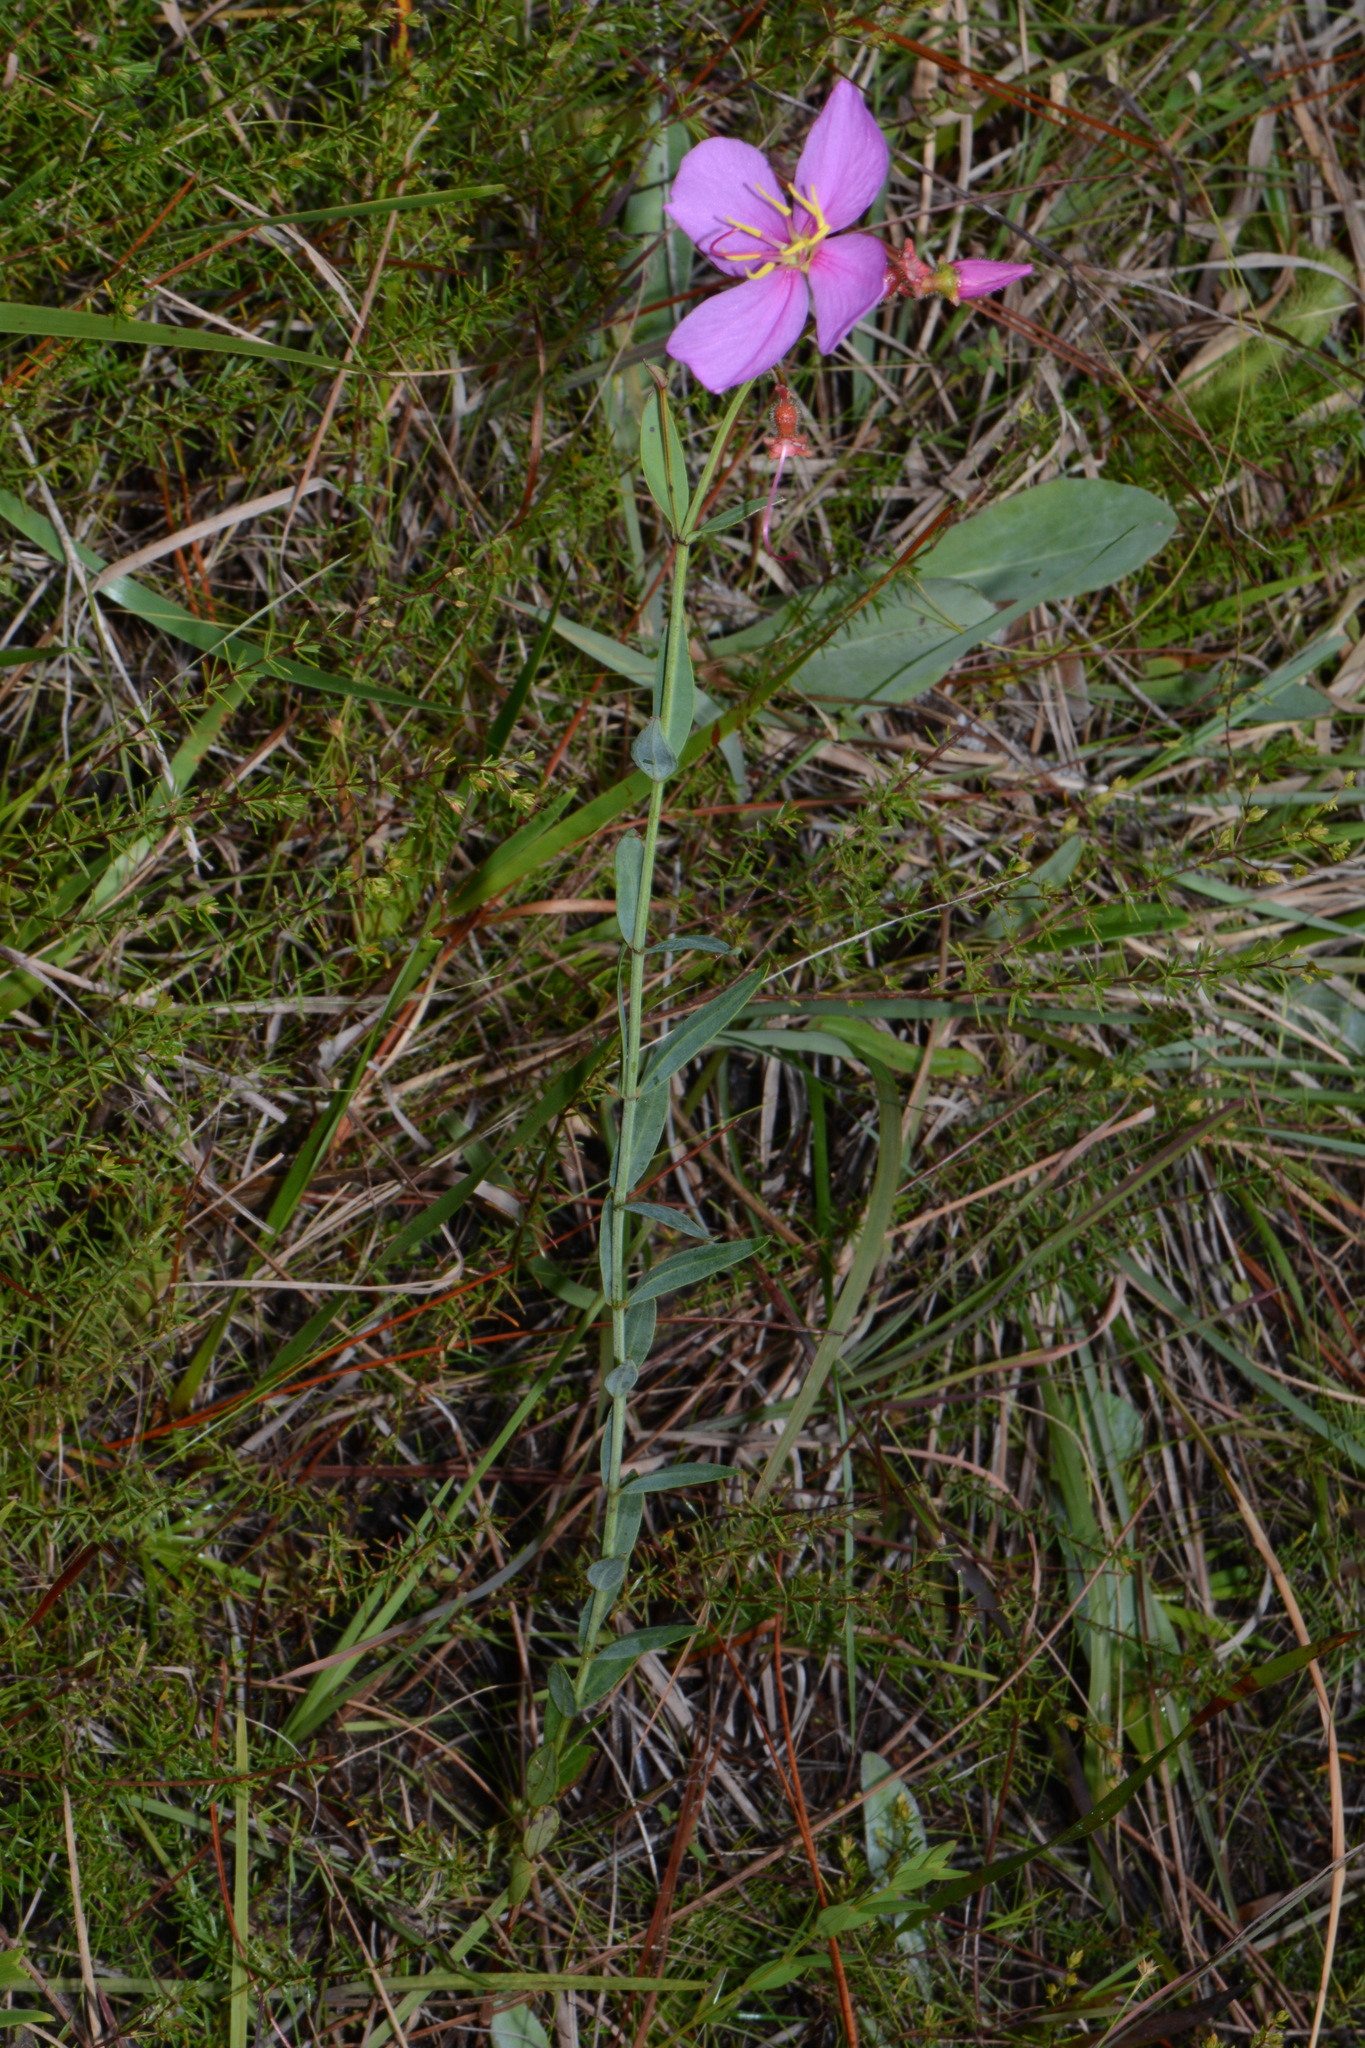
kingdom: Plantae
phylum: Tracheophyta
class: Magnoliopsida
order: Myrtales
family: Melastomataceae
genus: Rhexia
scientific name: Rhexia alifanus
